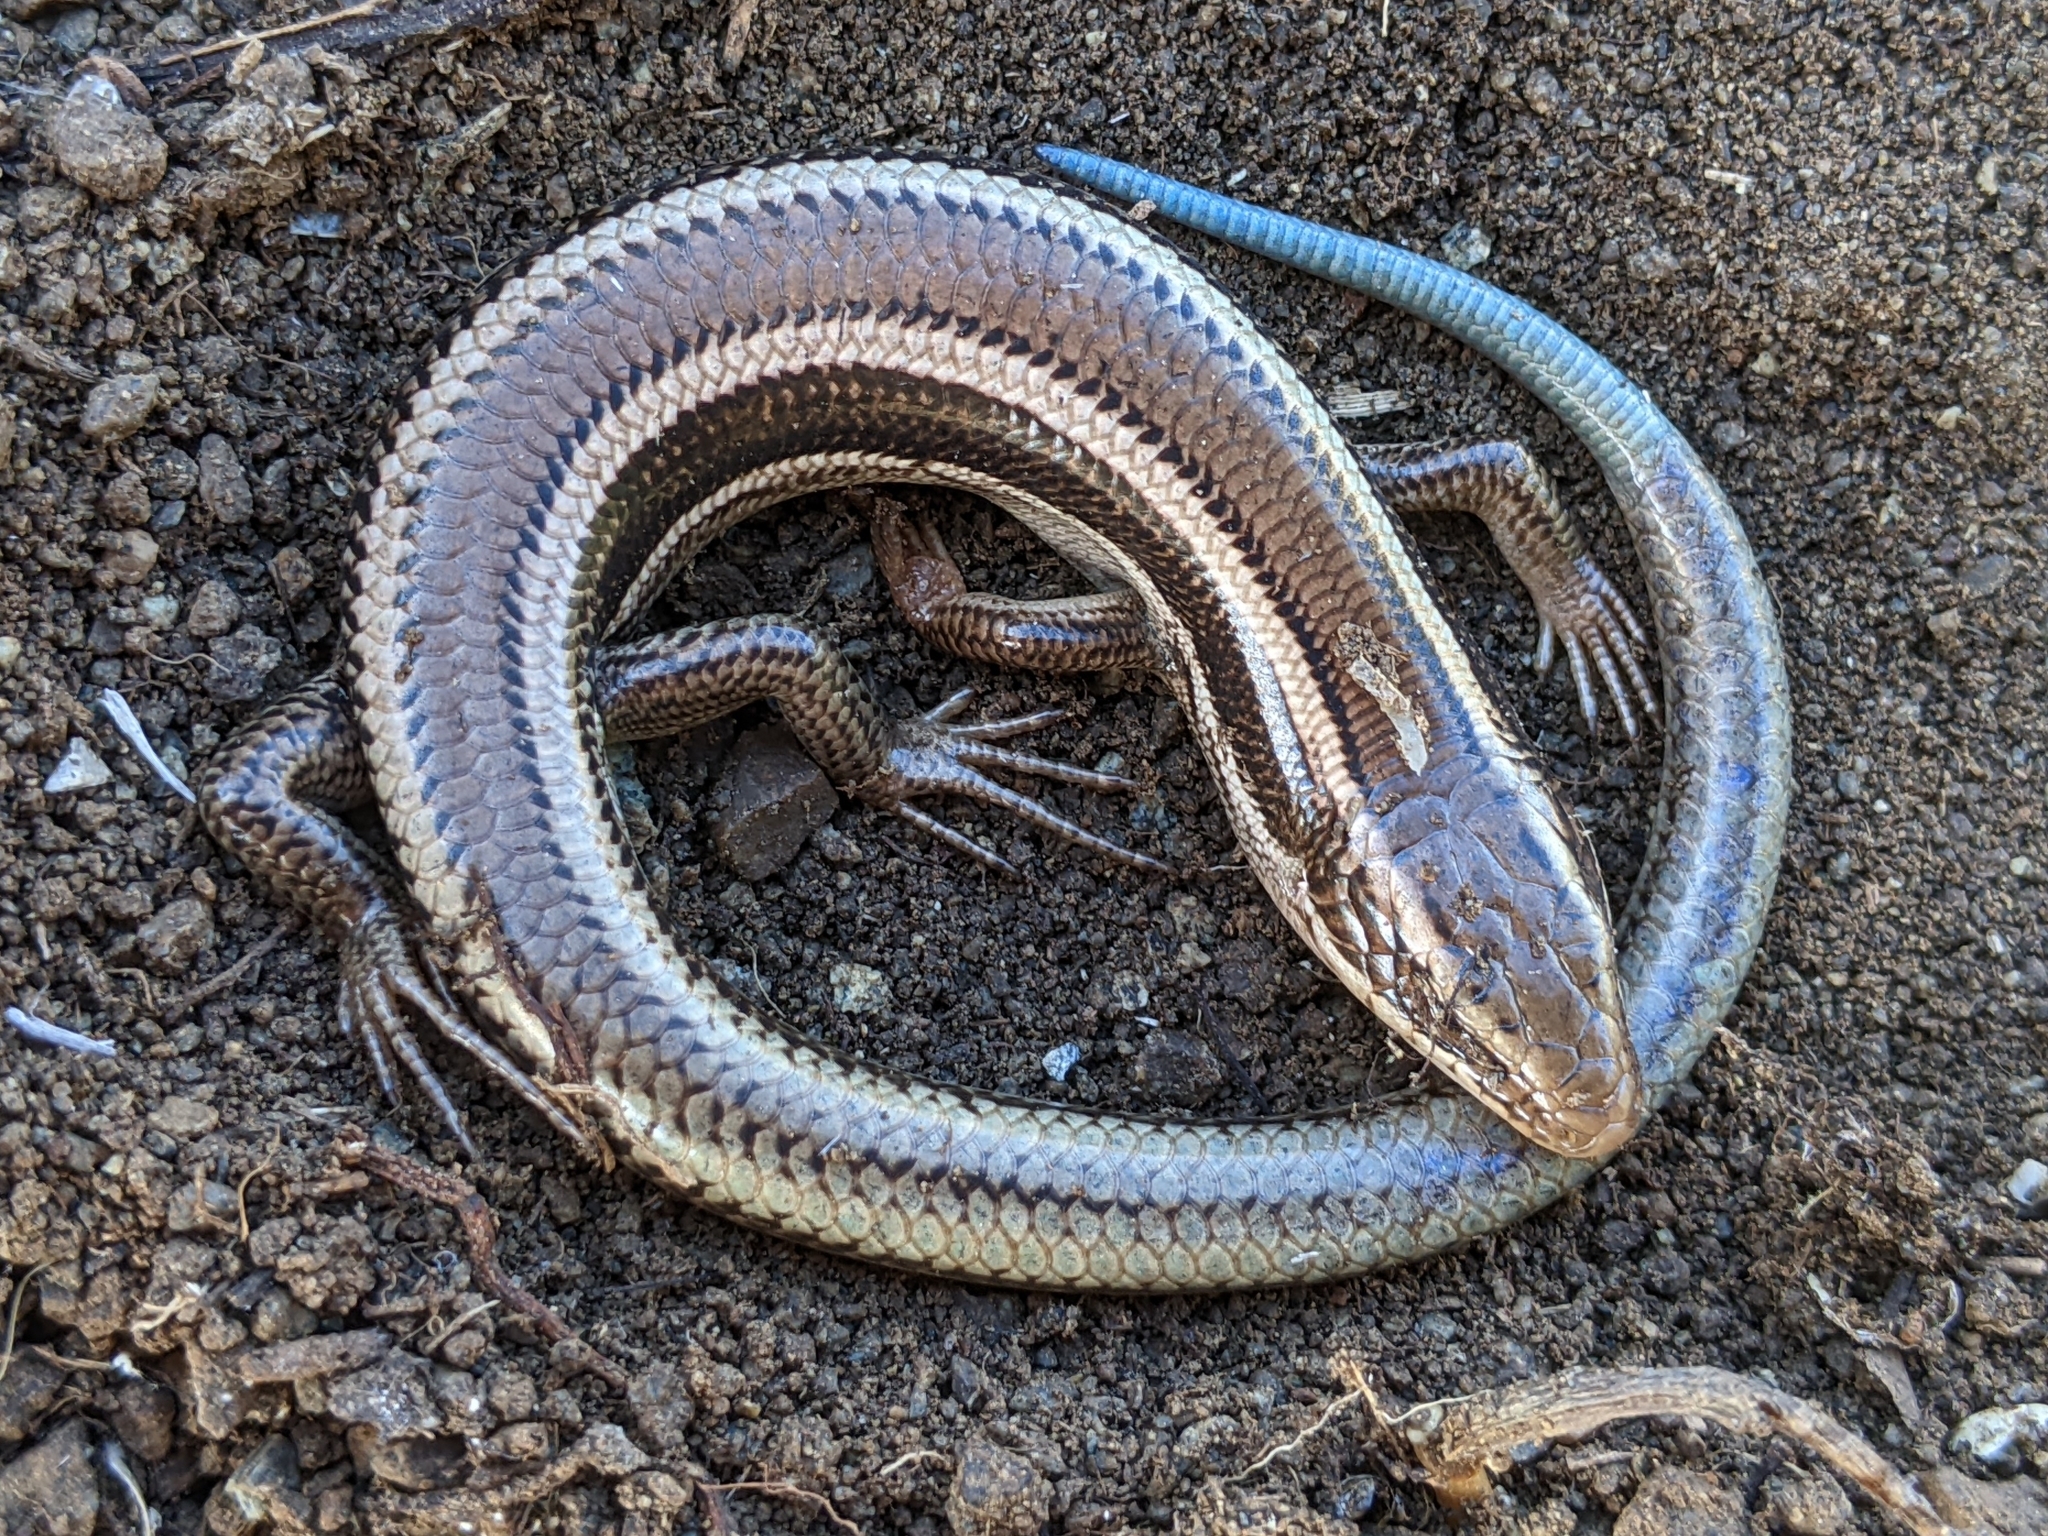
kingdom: Animalia
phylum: Chordata
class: Squamata
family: Scincidae
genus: Plestiodon
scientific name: Plestiodon skiltonianus
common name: Coronado island skink [interparietalis]
